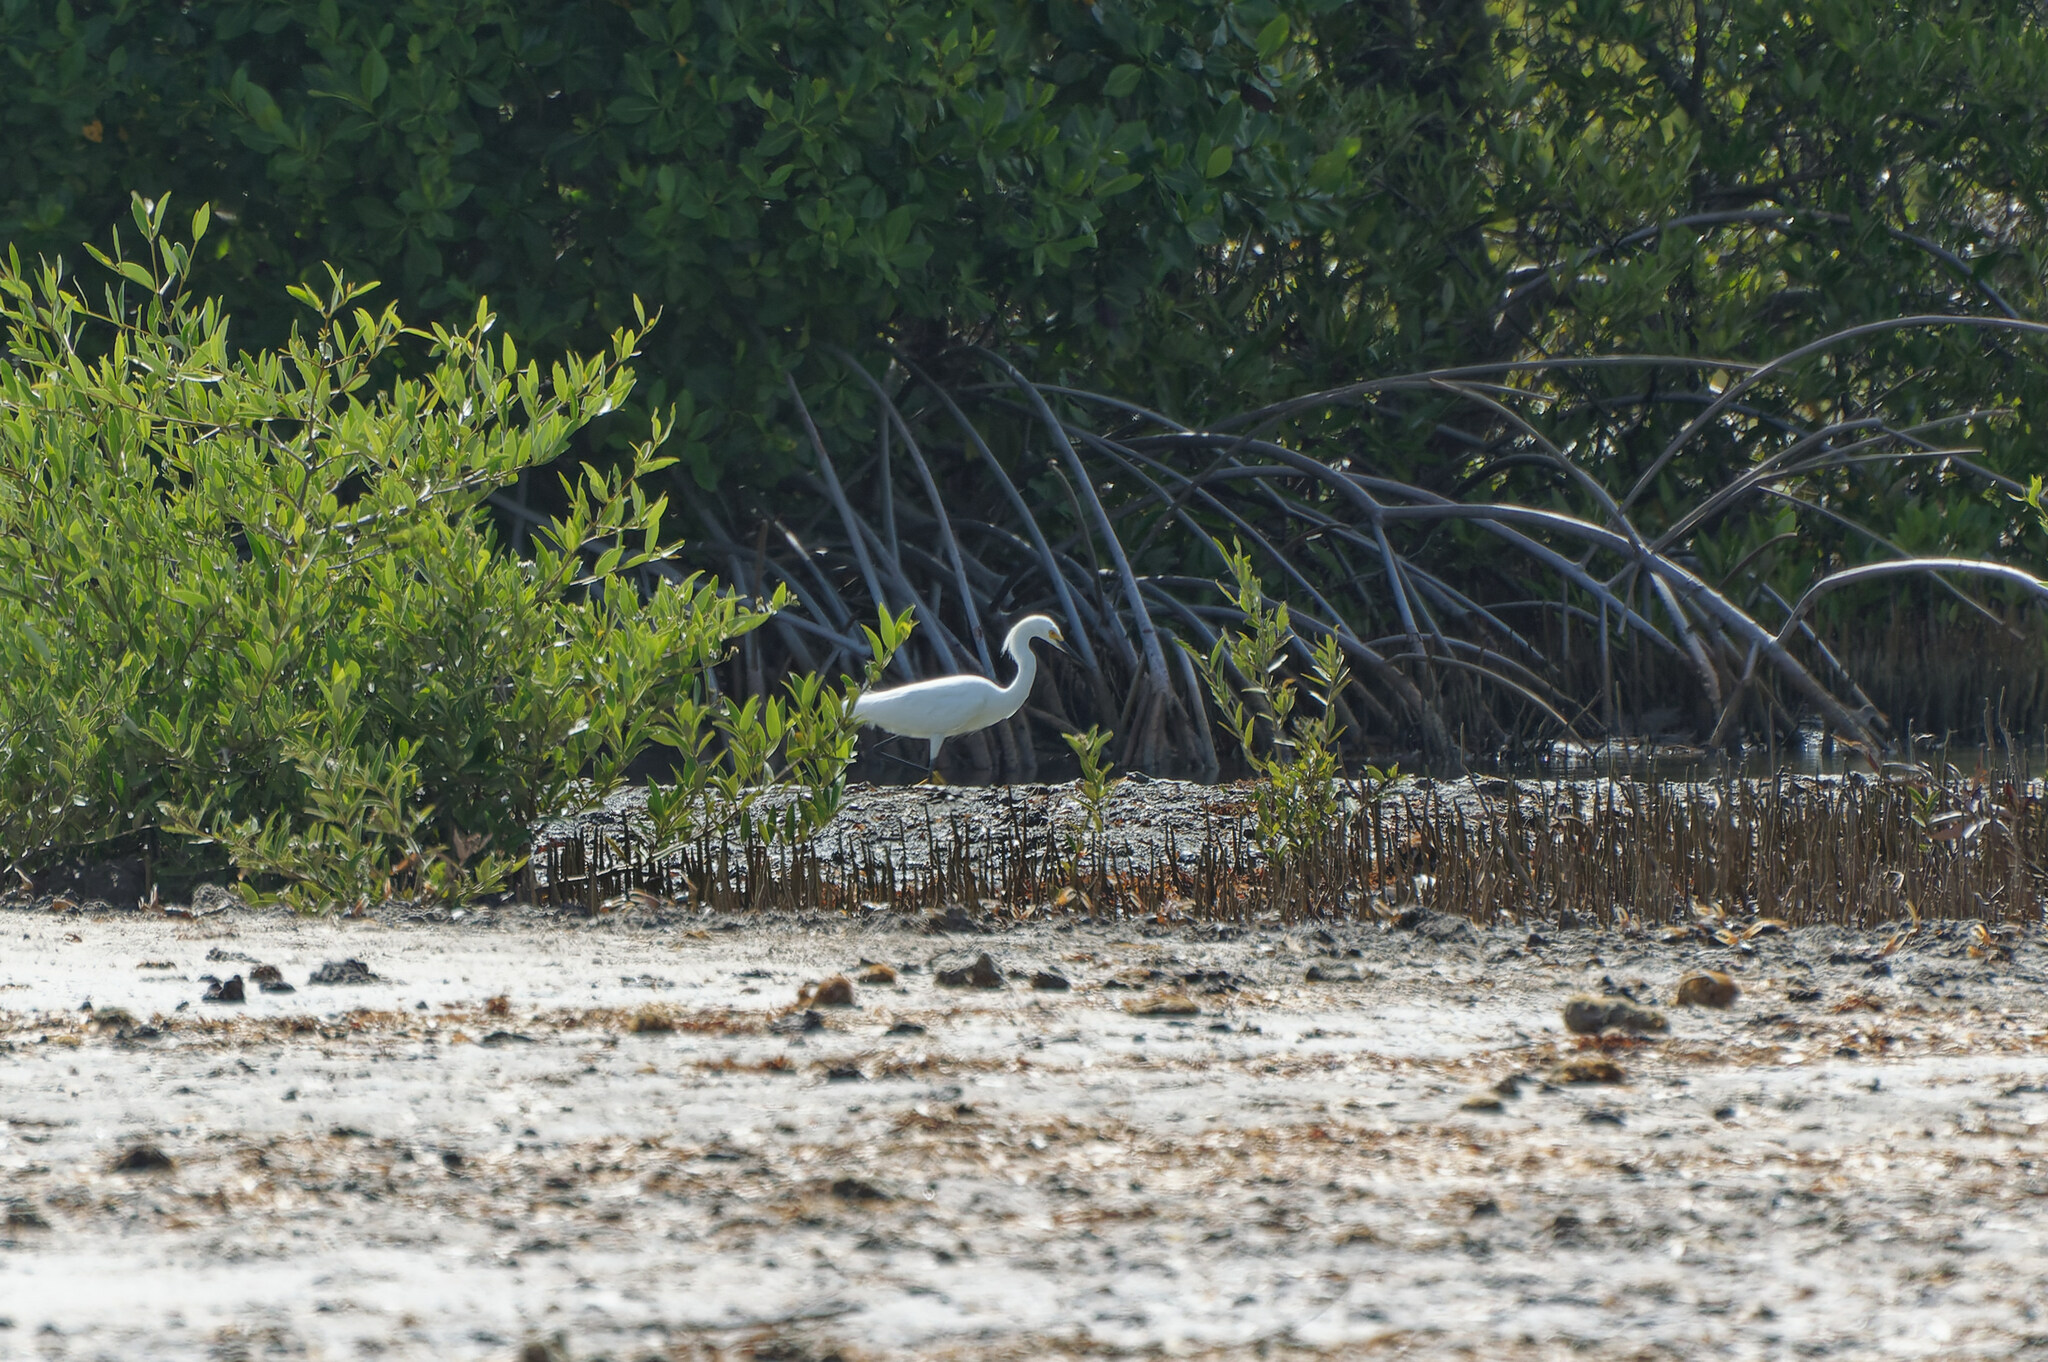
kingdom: Animalia
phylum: Chordata
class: Aves
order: Pelecaniformes
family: Ardeidae
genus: Egretta
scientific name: Egretta thula
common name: Snowy egret
